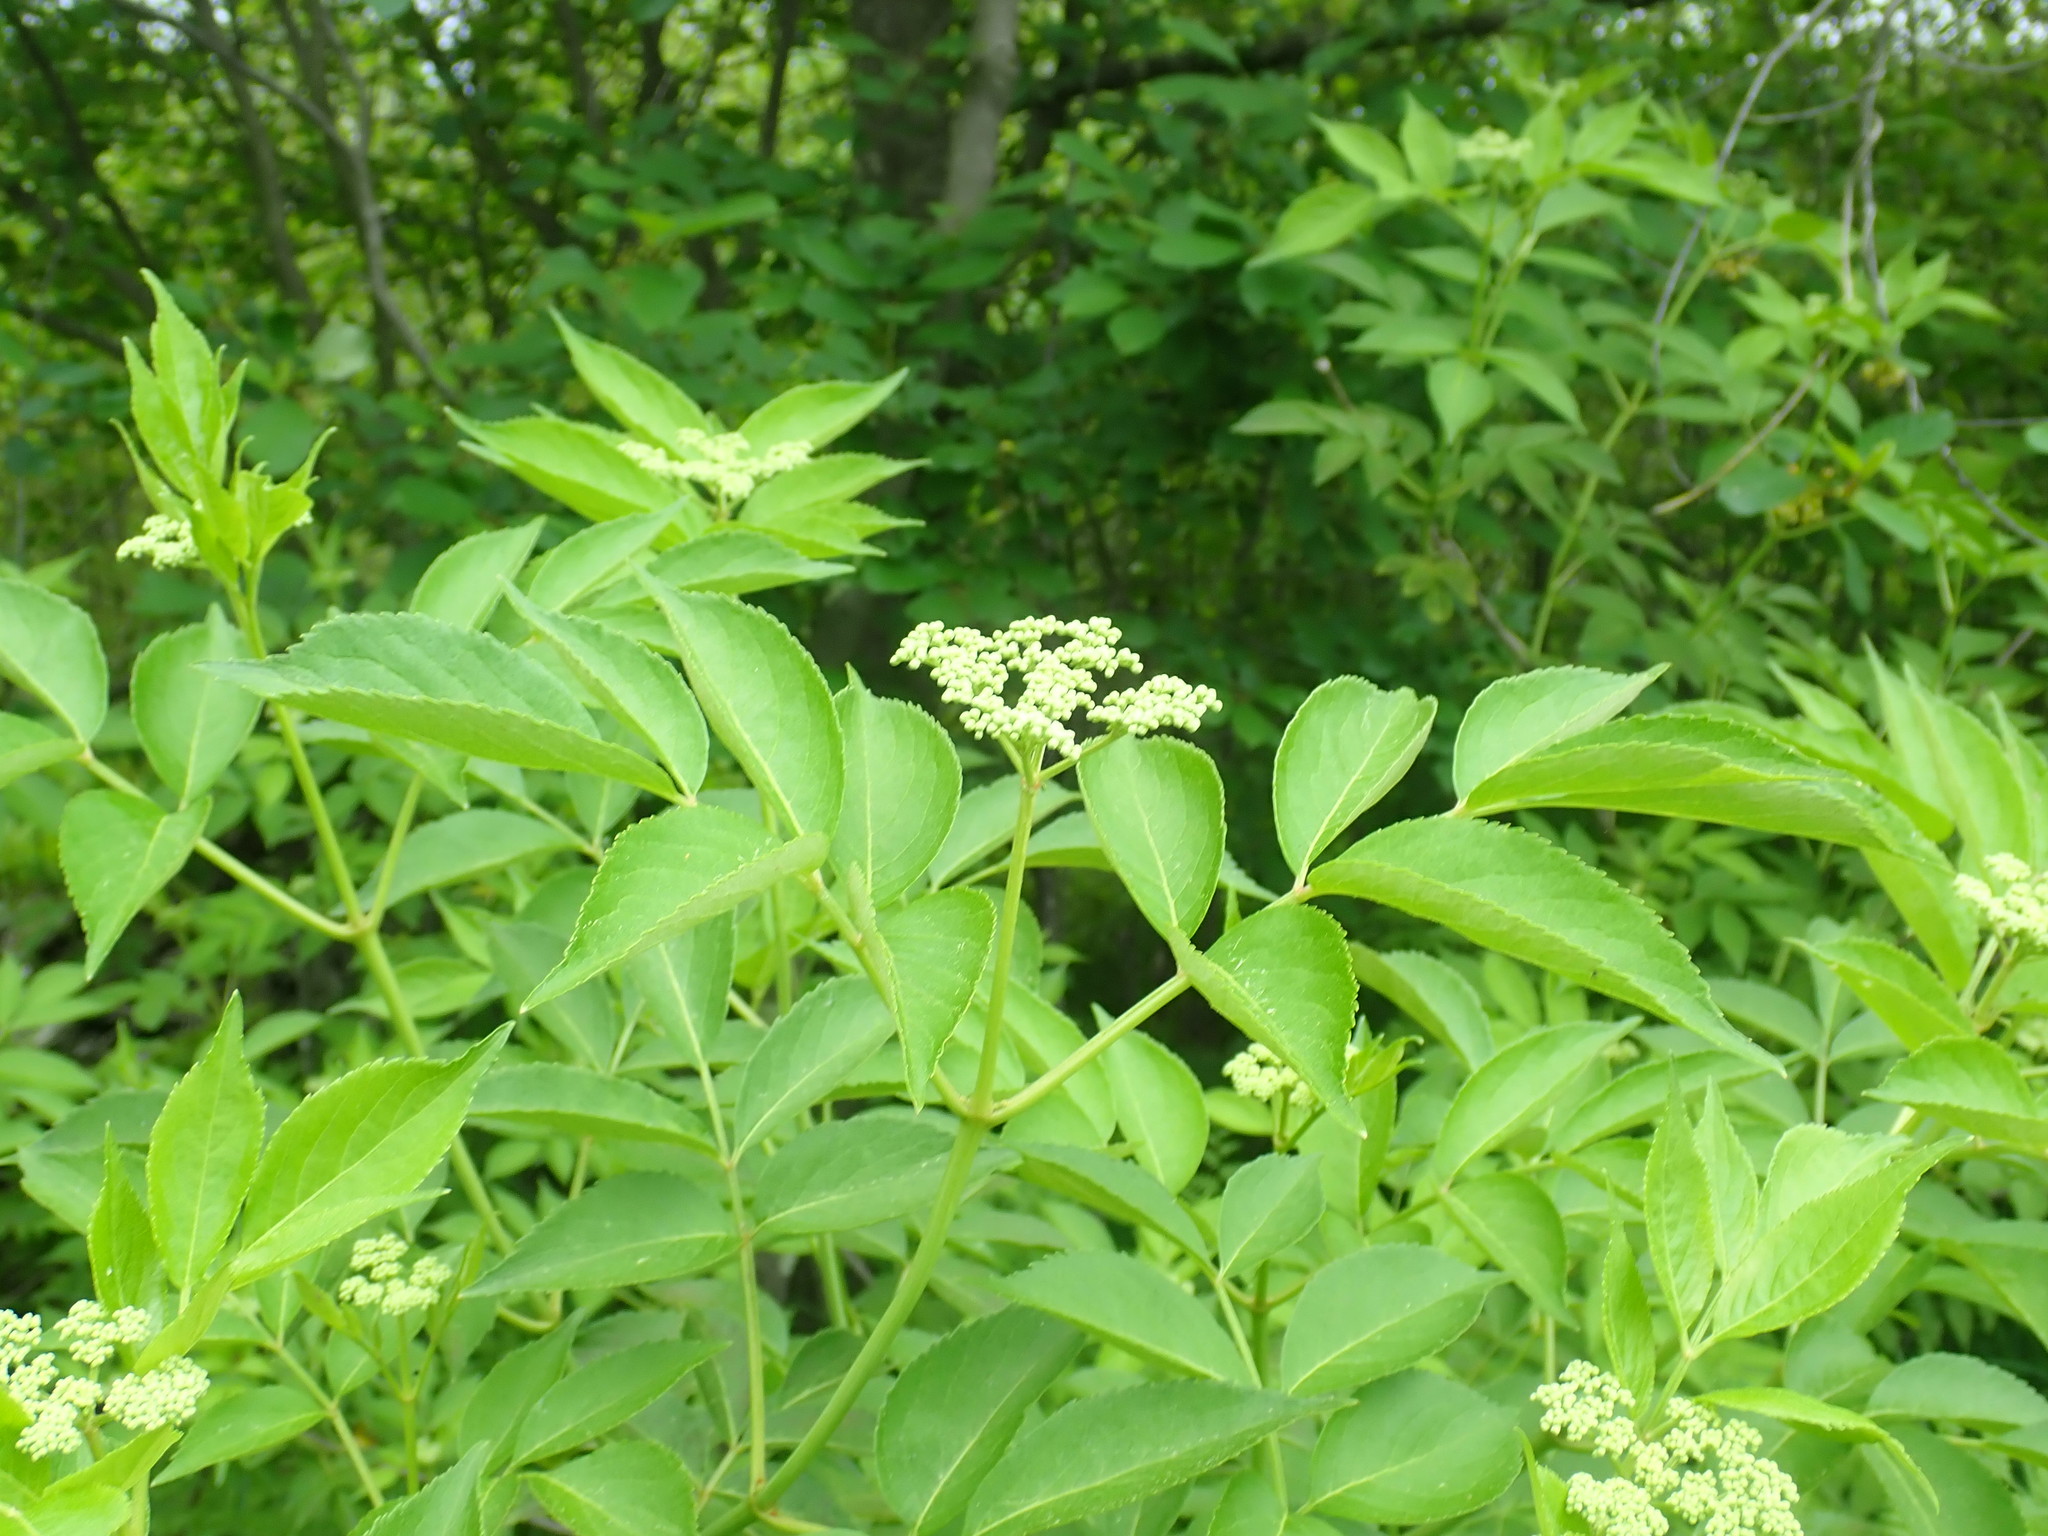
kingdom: Plantae
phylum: Tracheophyta
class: Magnoliopsida
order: Dipsacales
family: Viburnaceae
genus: Sambucus
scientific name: Sambucus canadensis
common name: American elder
